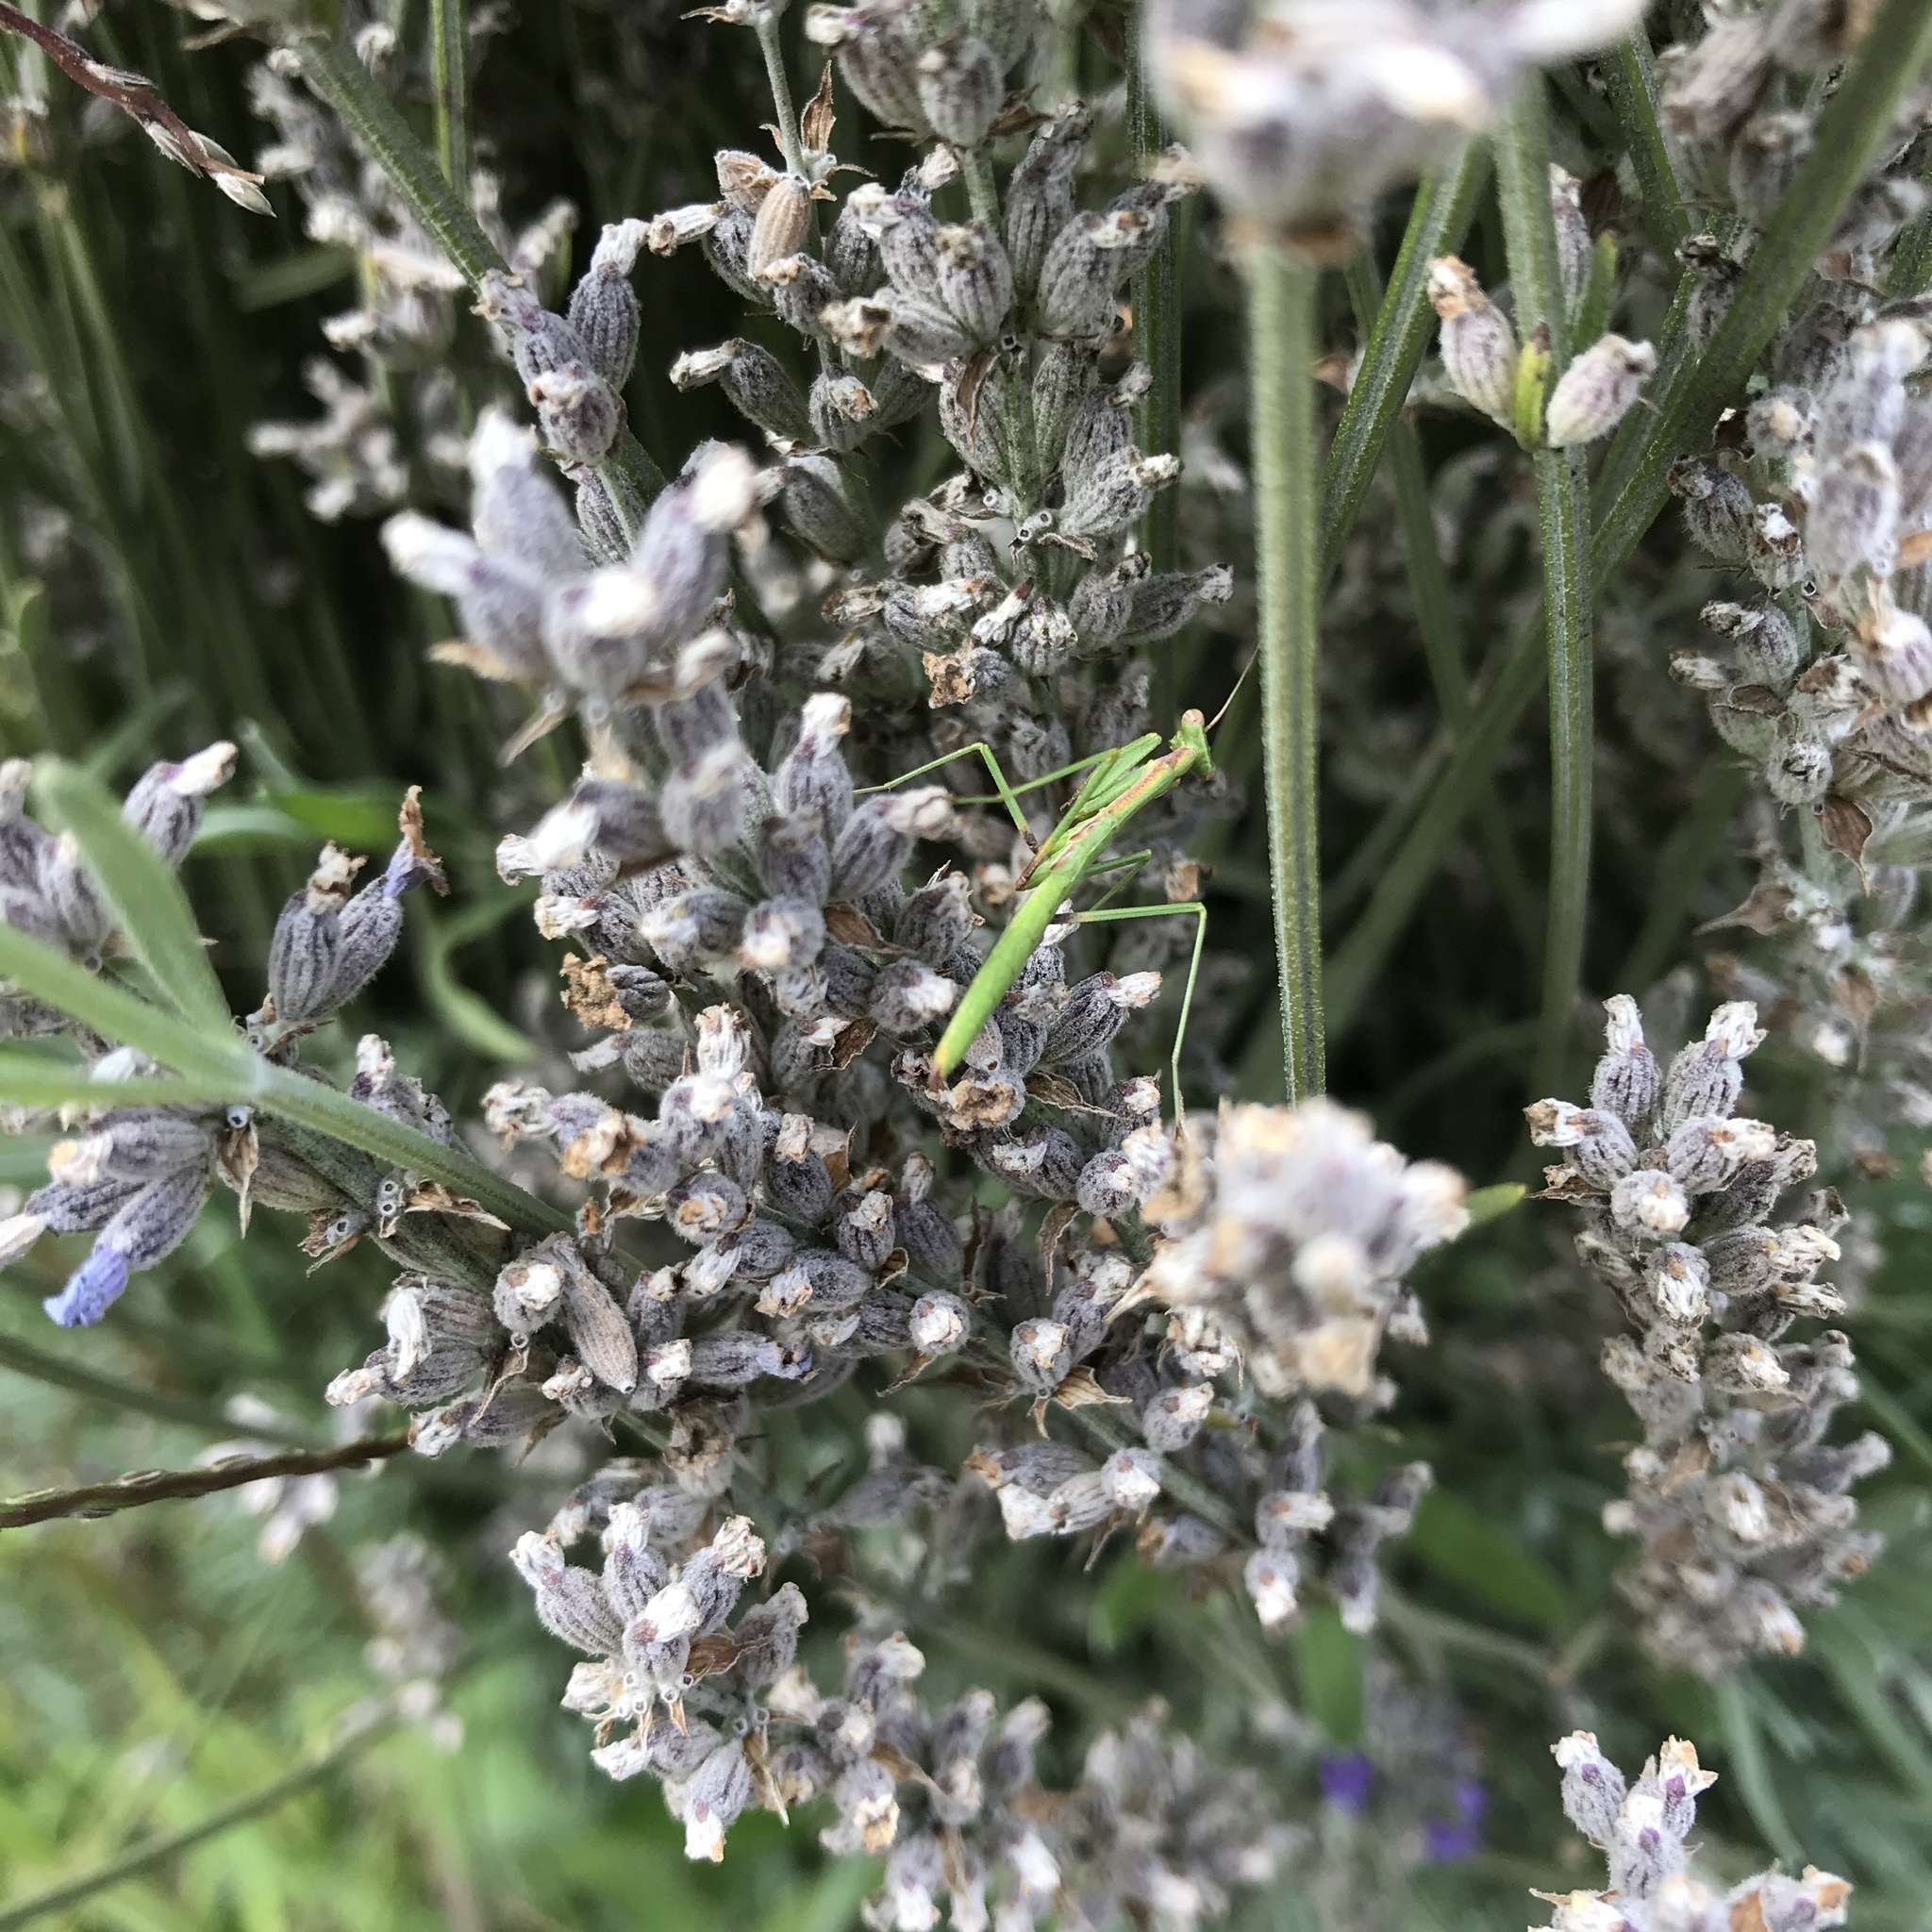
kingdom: Animalia
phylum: Arthropoda
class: Insecta
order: Mantodea
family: Coptopterygidae
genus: Coptopteryx
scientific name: Coptopteryx gayi
